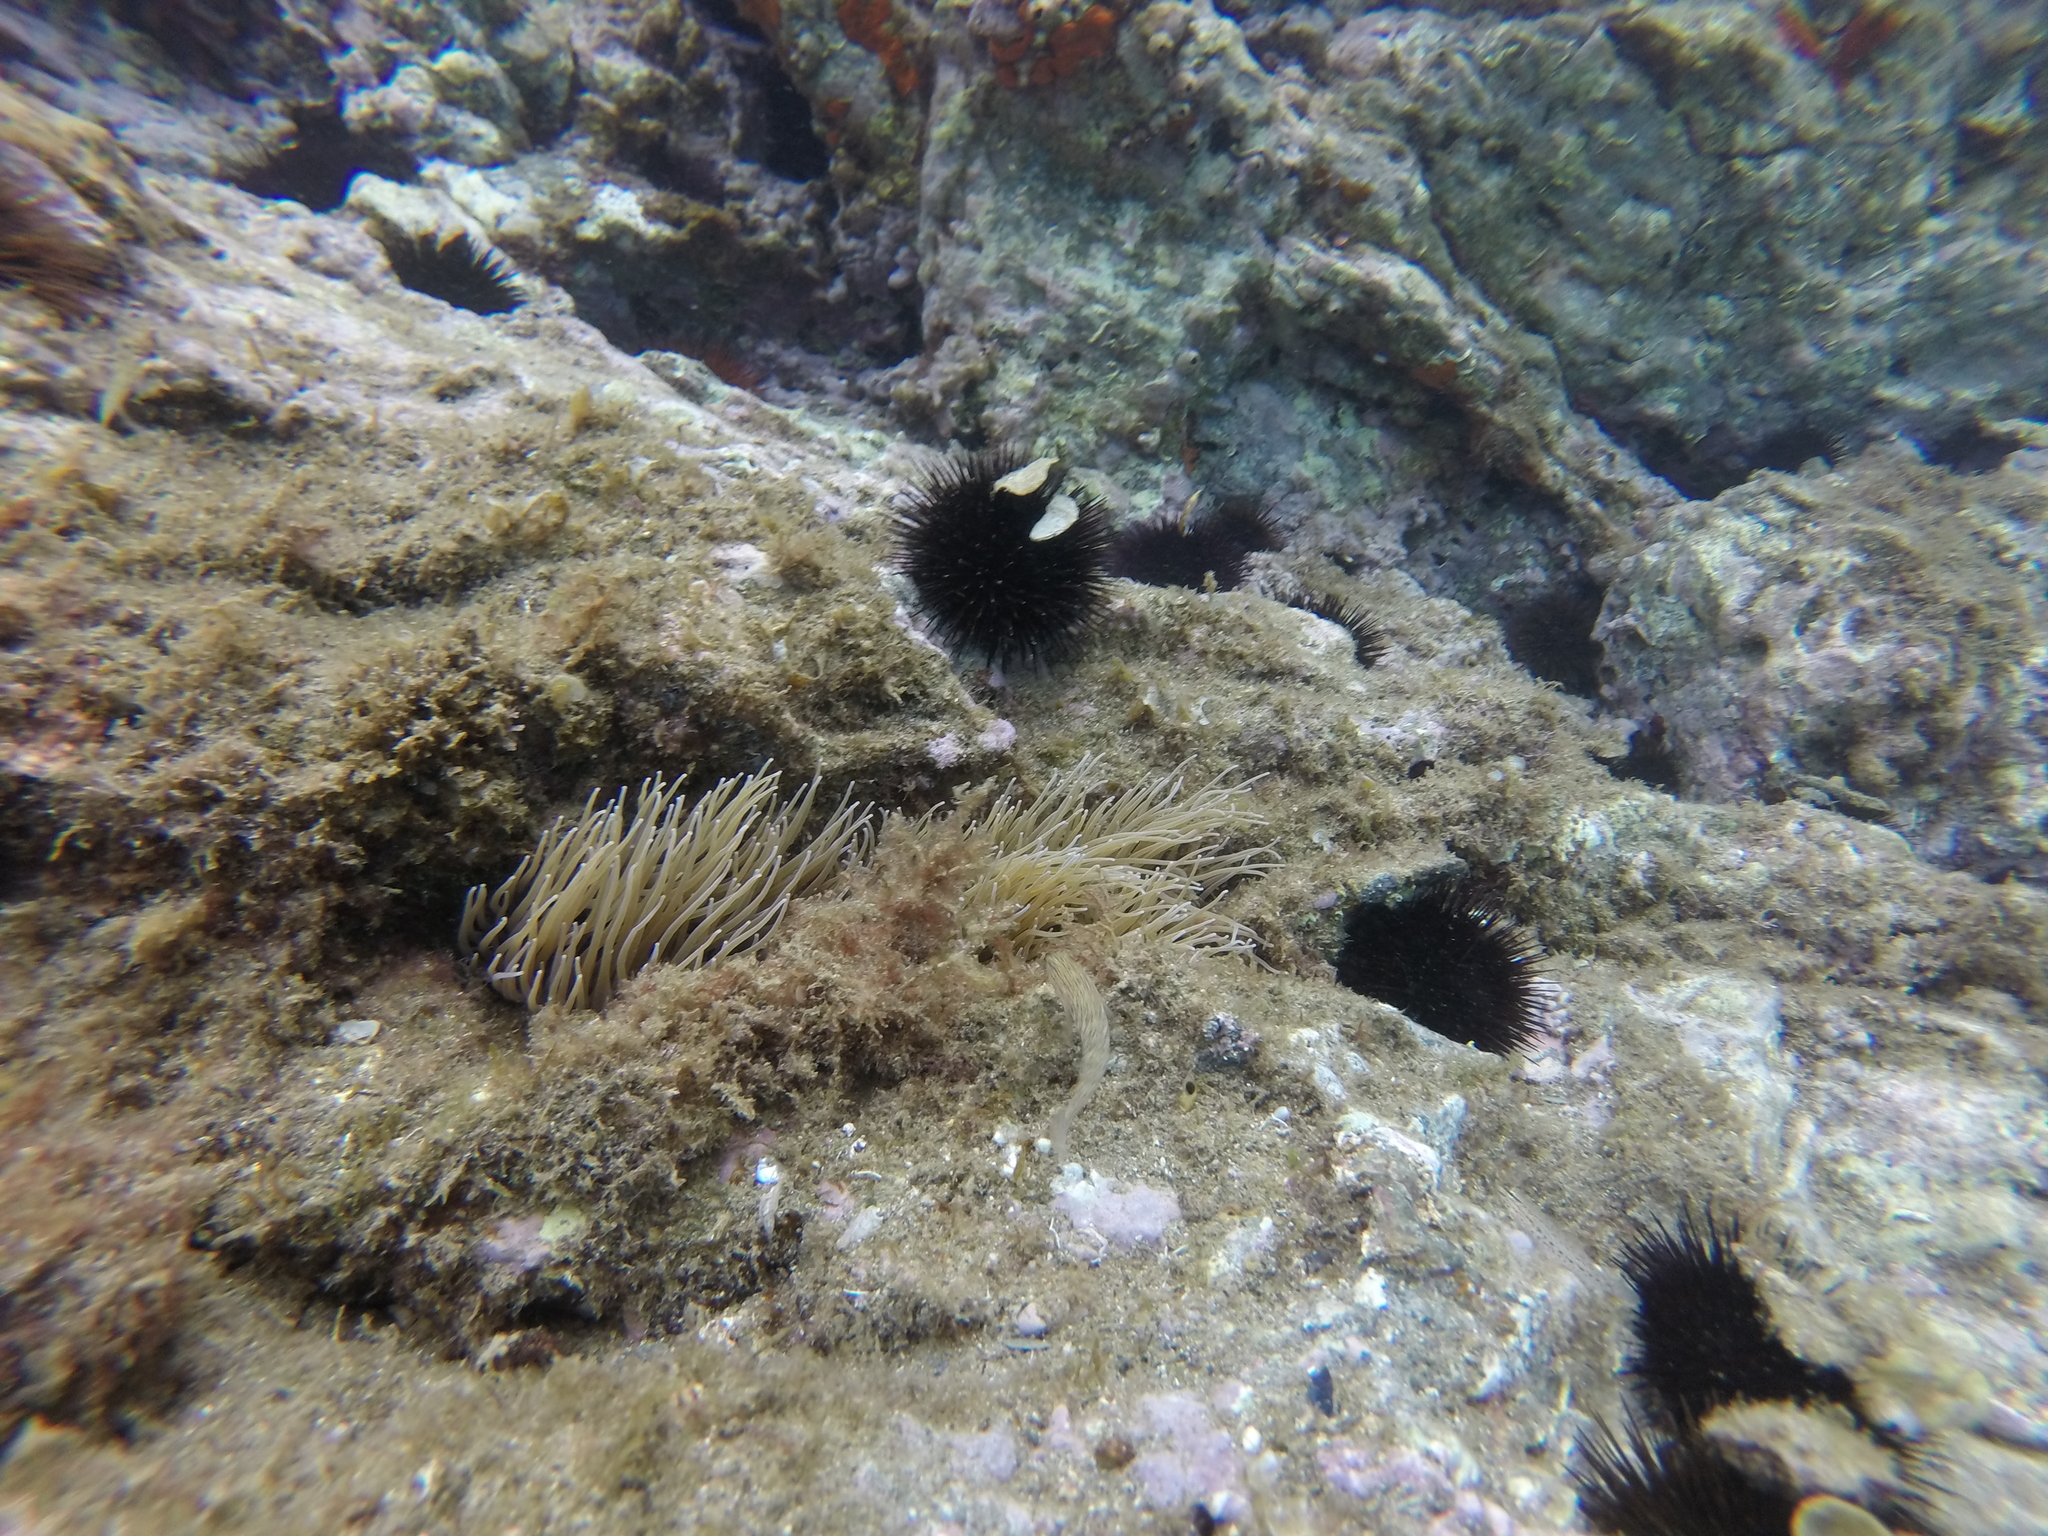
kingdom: Animalia
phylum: Cnidaria
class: Anthozoa
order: Actiniaria
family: Actiniidae
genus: Anemonia
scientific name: Anemonia viridis
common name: Snakelocks anemone
